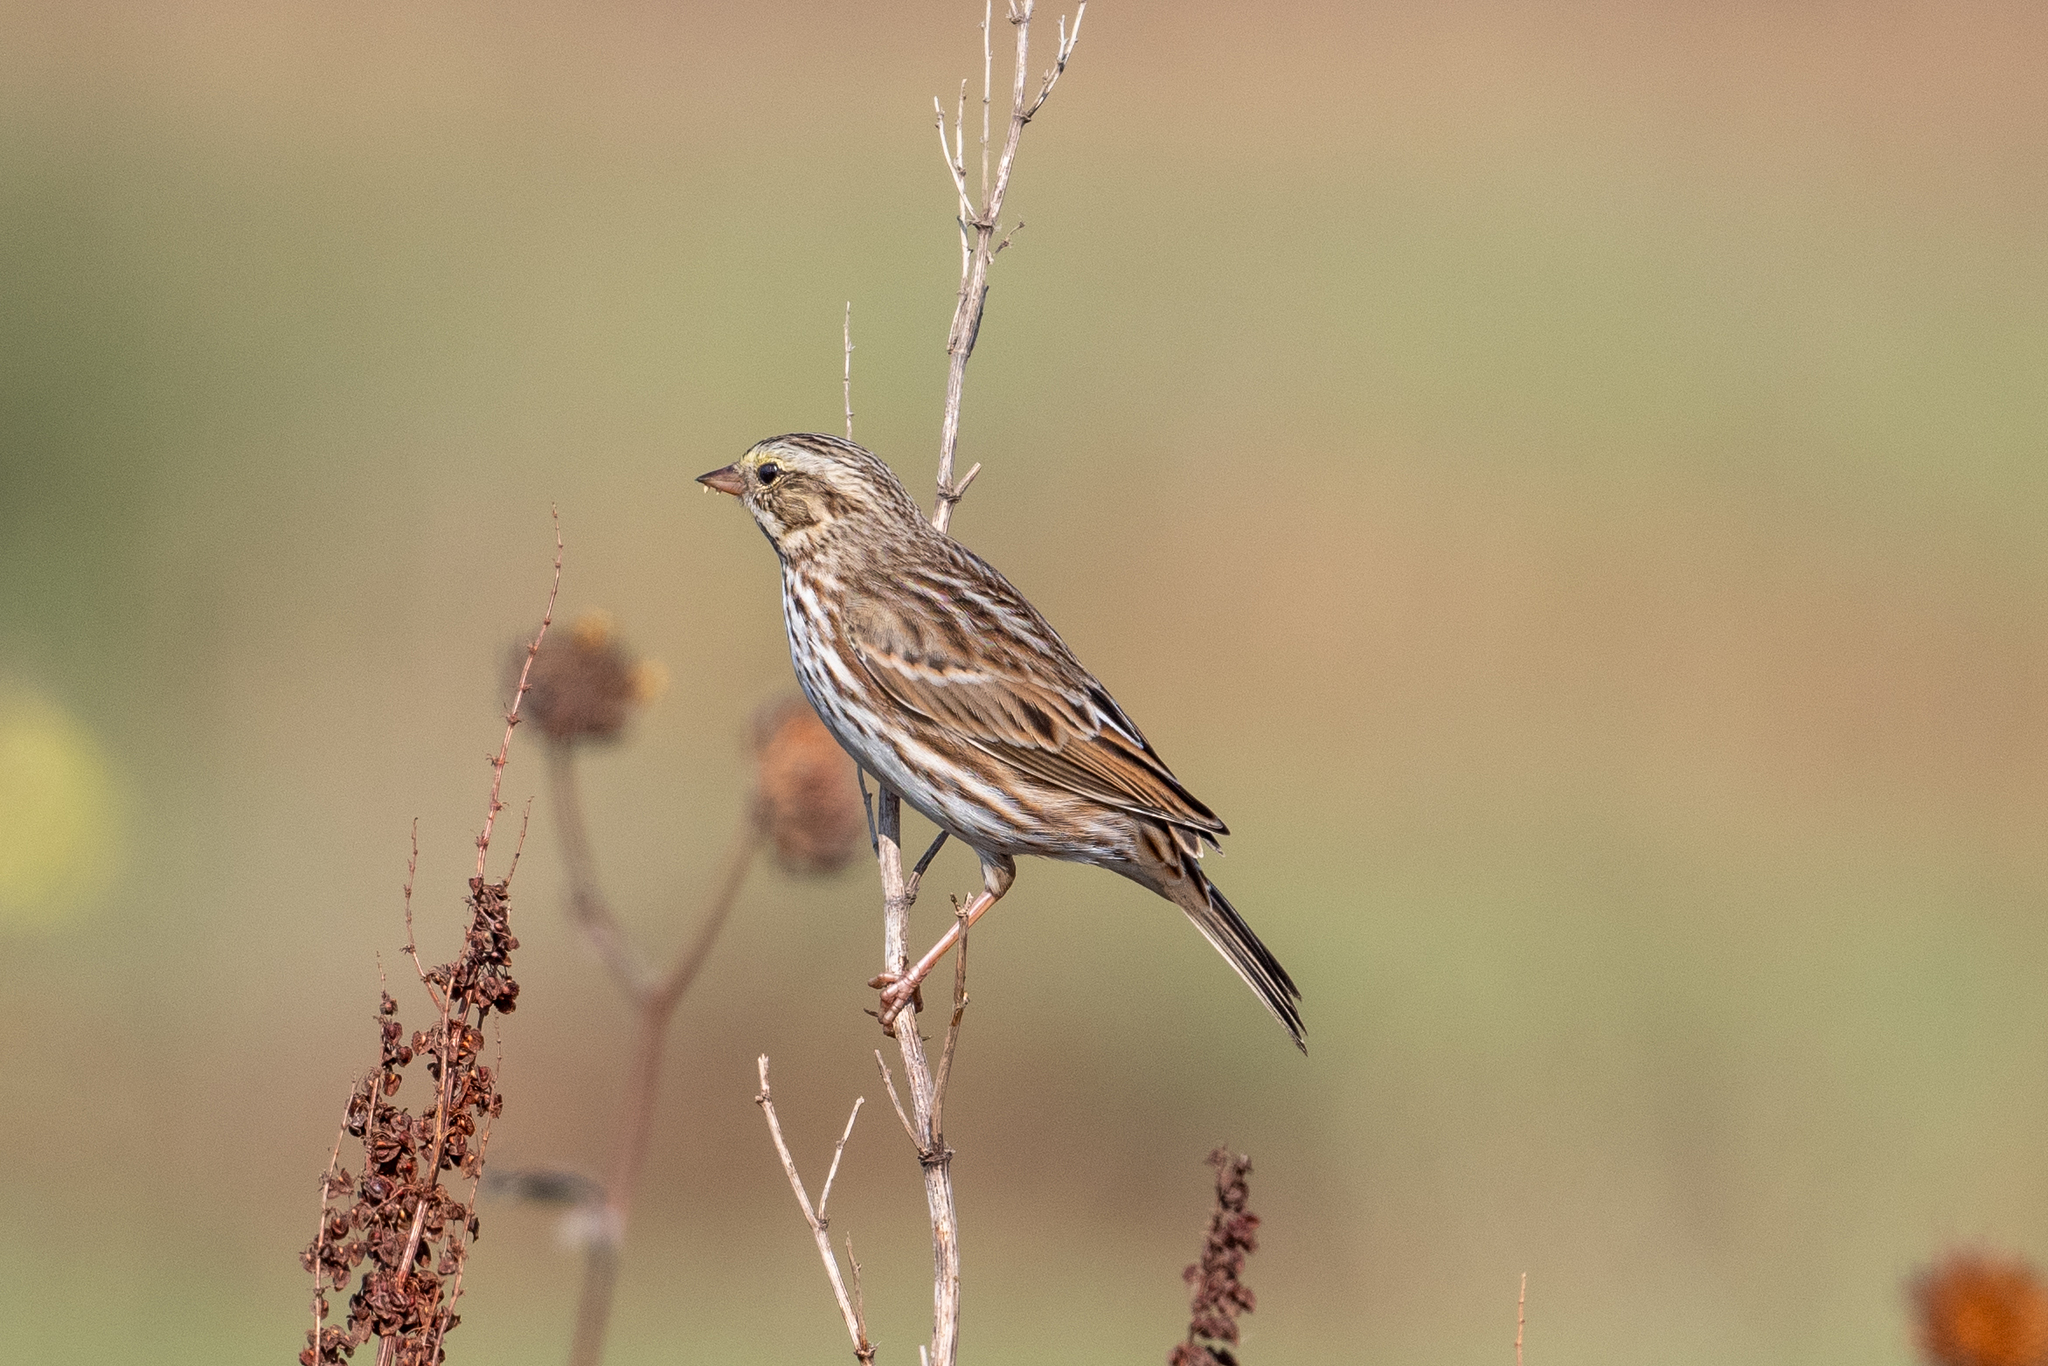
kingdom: Animalia
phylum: Chordata
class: Aves
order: Passeriformes
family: Passerellidae
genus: Passerculus
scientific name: Passerculus sandwichensis
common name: Savannah sparrow
